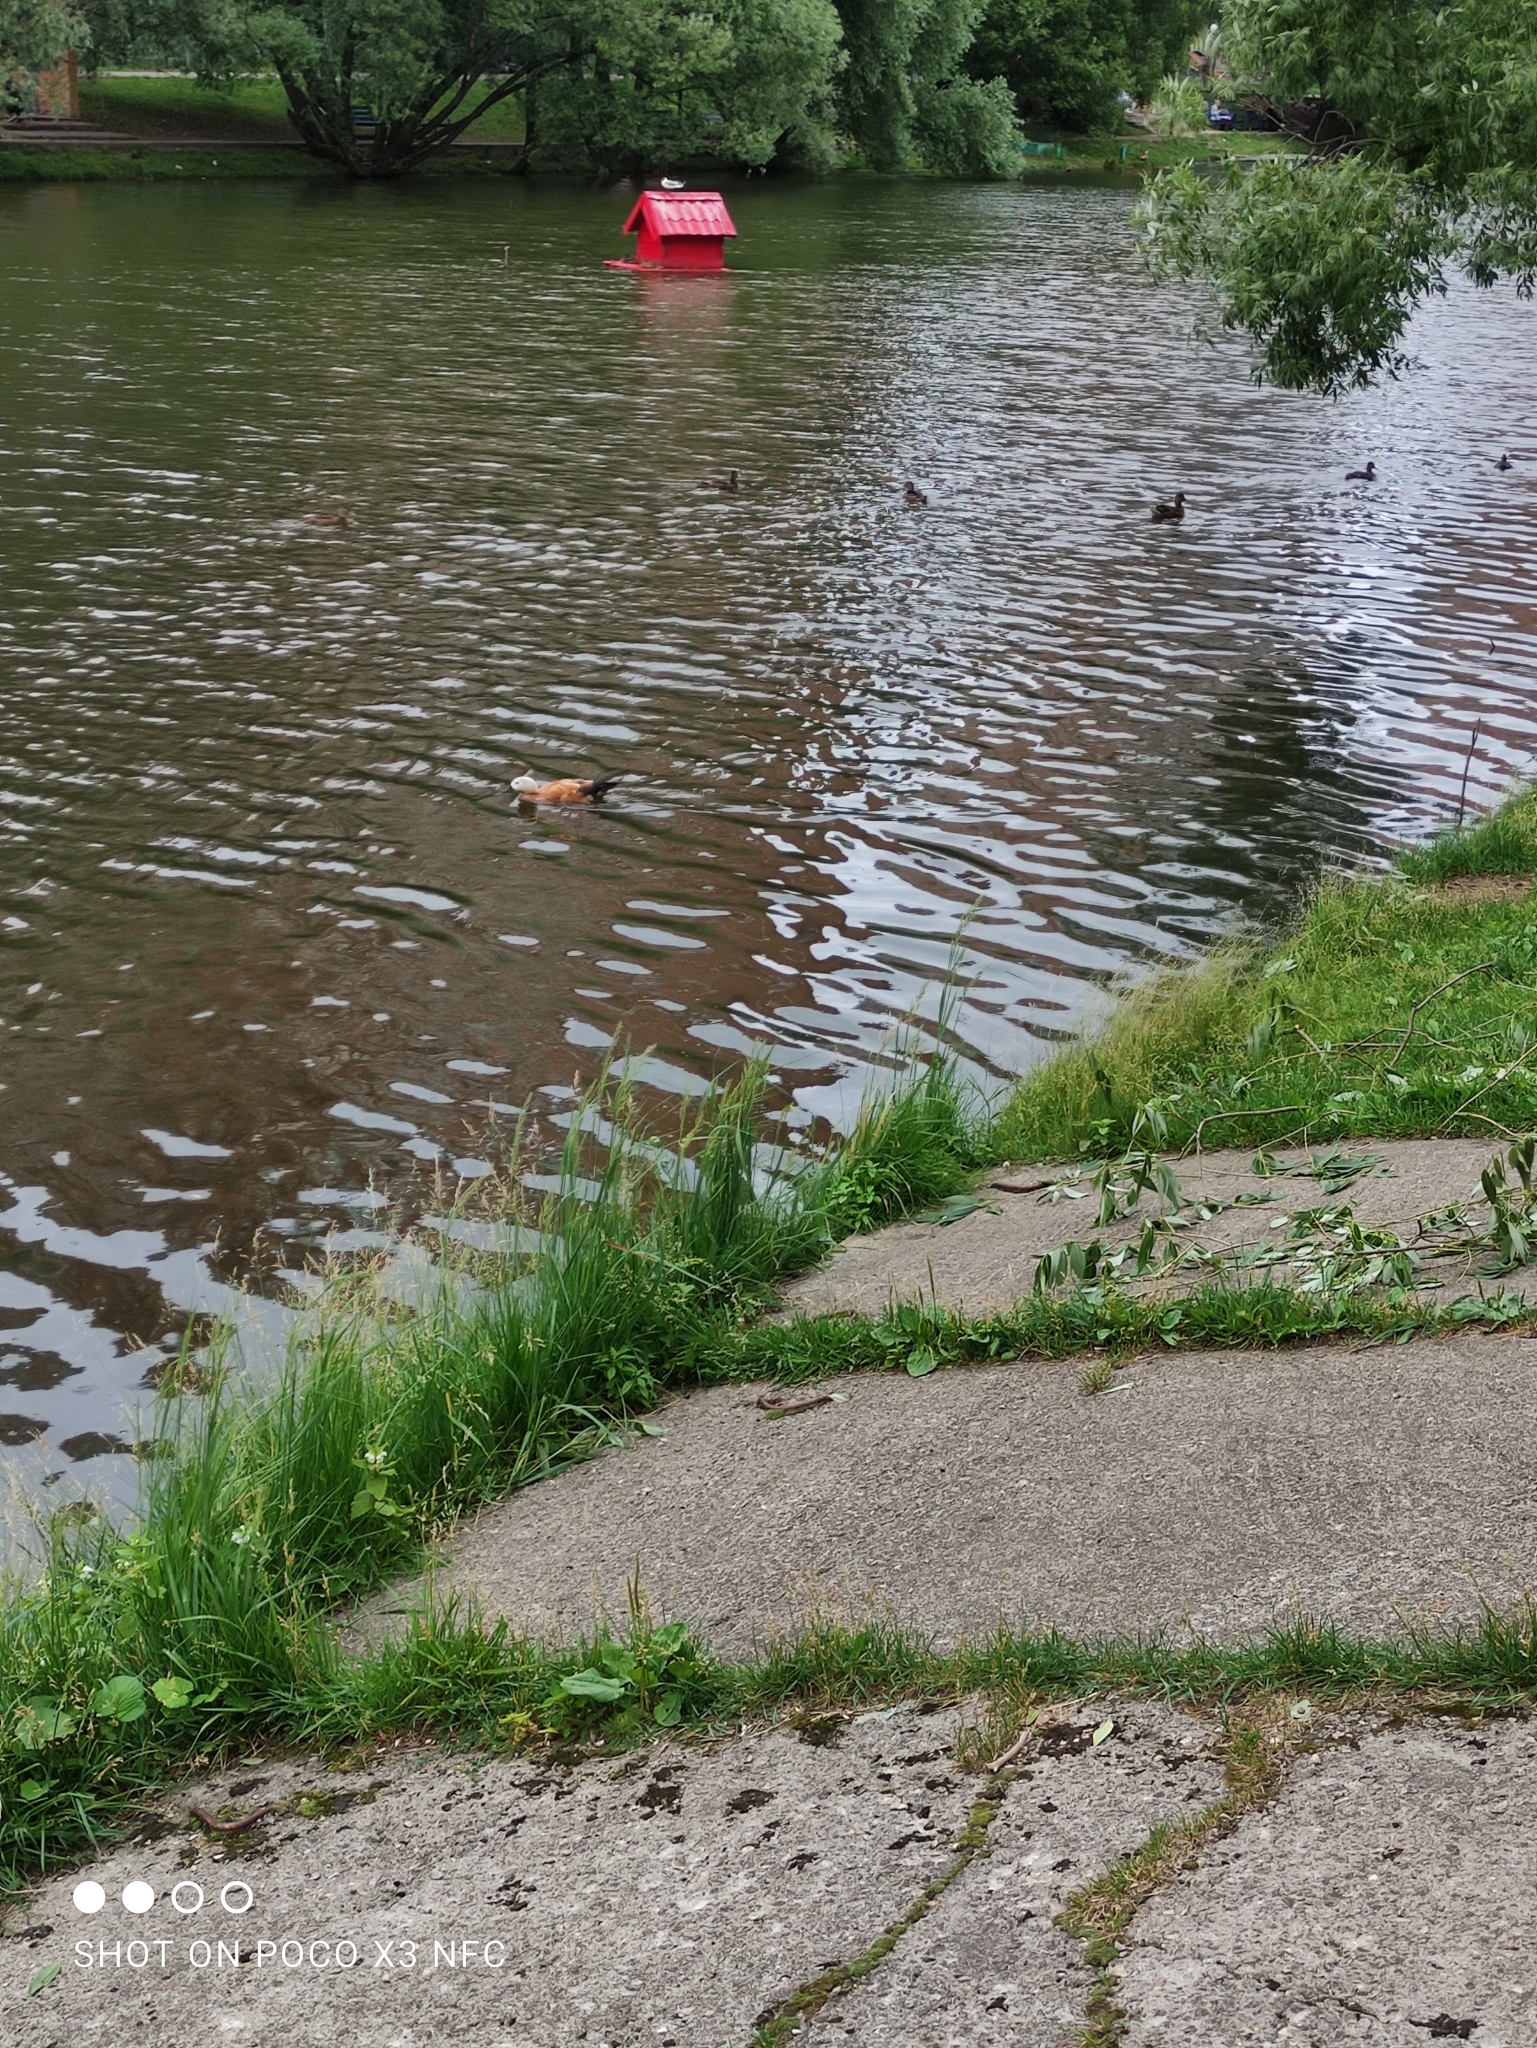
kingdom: Animalia
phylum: Chordata
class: Aves
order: Anseriformes
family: Anatidae
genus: Tadorna
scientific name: Tadorna ferruginea
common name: Ruddy shelduck
